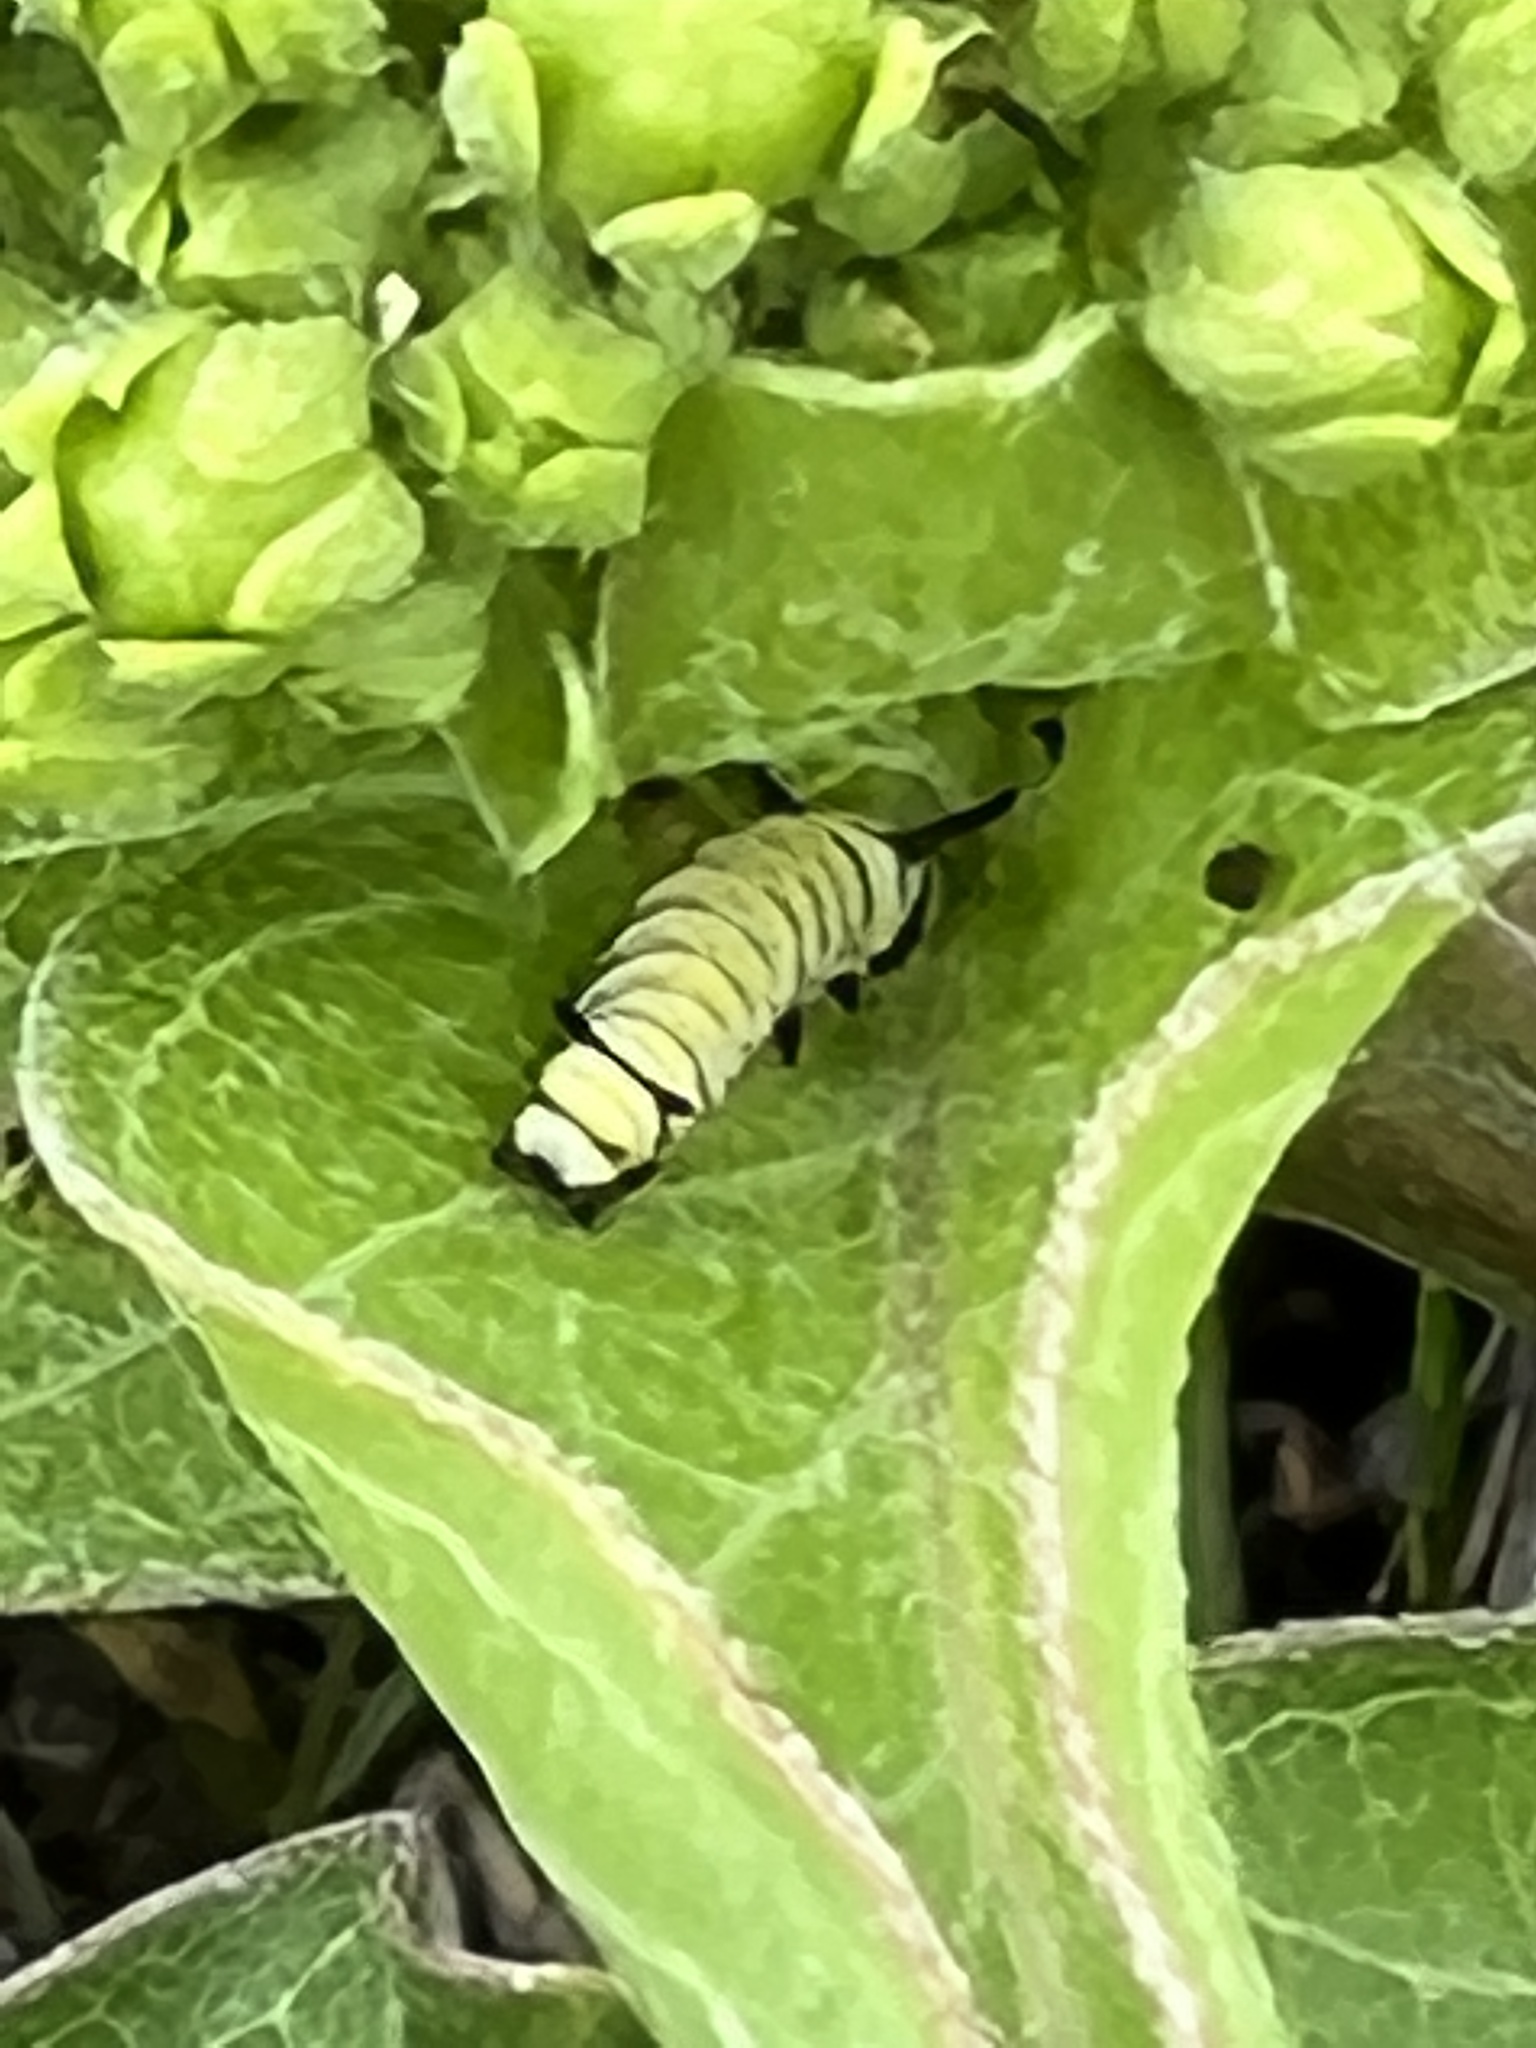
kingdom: Animalia
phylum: Arthropoda
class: Insecta
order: Lepidoptera
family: Nymphalidae
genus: Danaus
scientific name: Danaus plexippus
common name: Monarch
